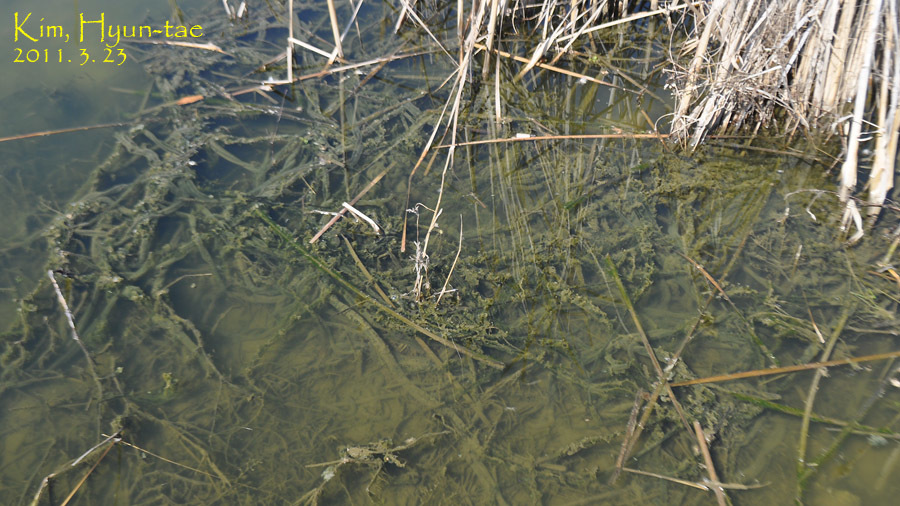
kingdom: Animalia
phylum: Chordata
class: Amphibia
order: Anura
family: Bufonidae
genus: Bufo
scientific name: Bufo gargarizans
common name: Asiatic toad
